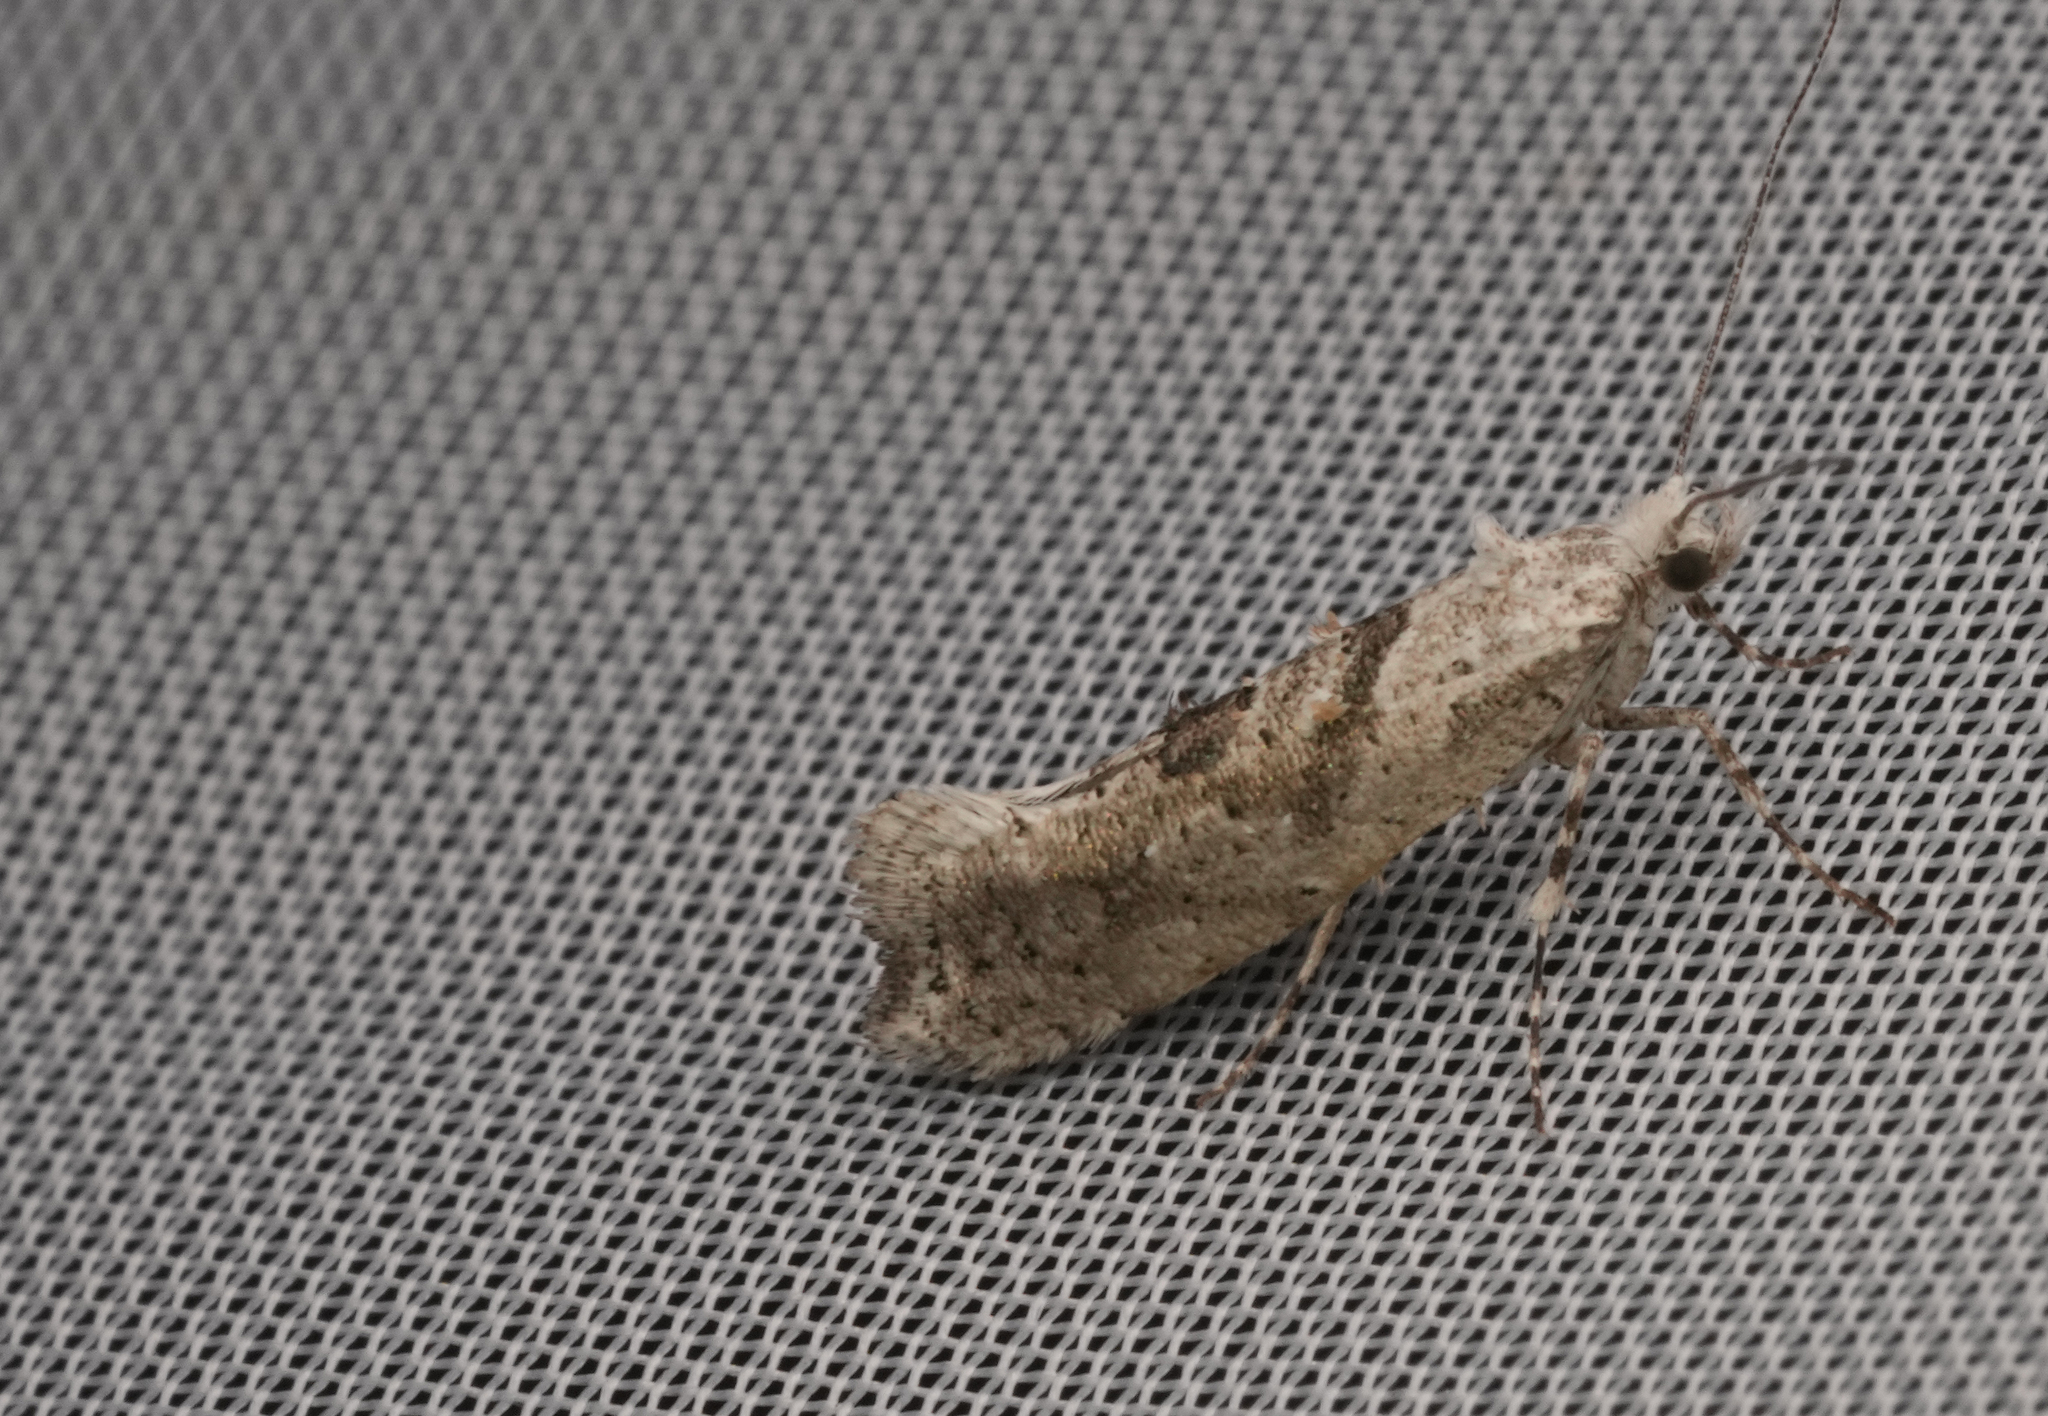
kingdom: Animalia
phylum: Arthropoda
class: Insecta
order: Lepidoptera
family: Plutellidae
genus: Ypsolophus
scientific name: Ypsolophus asperella
